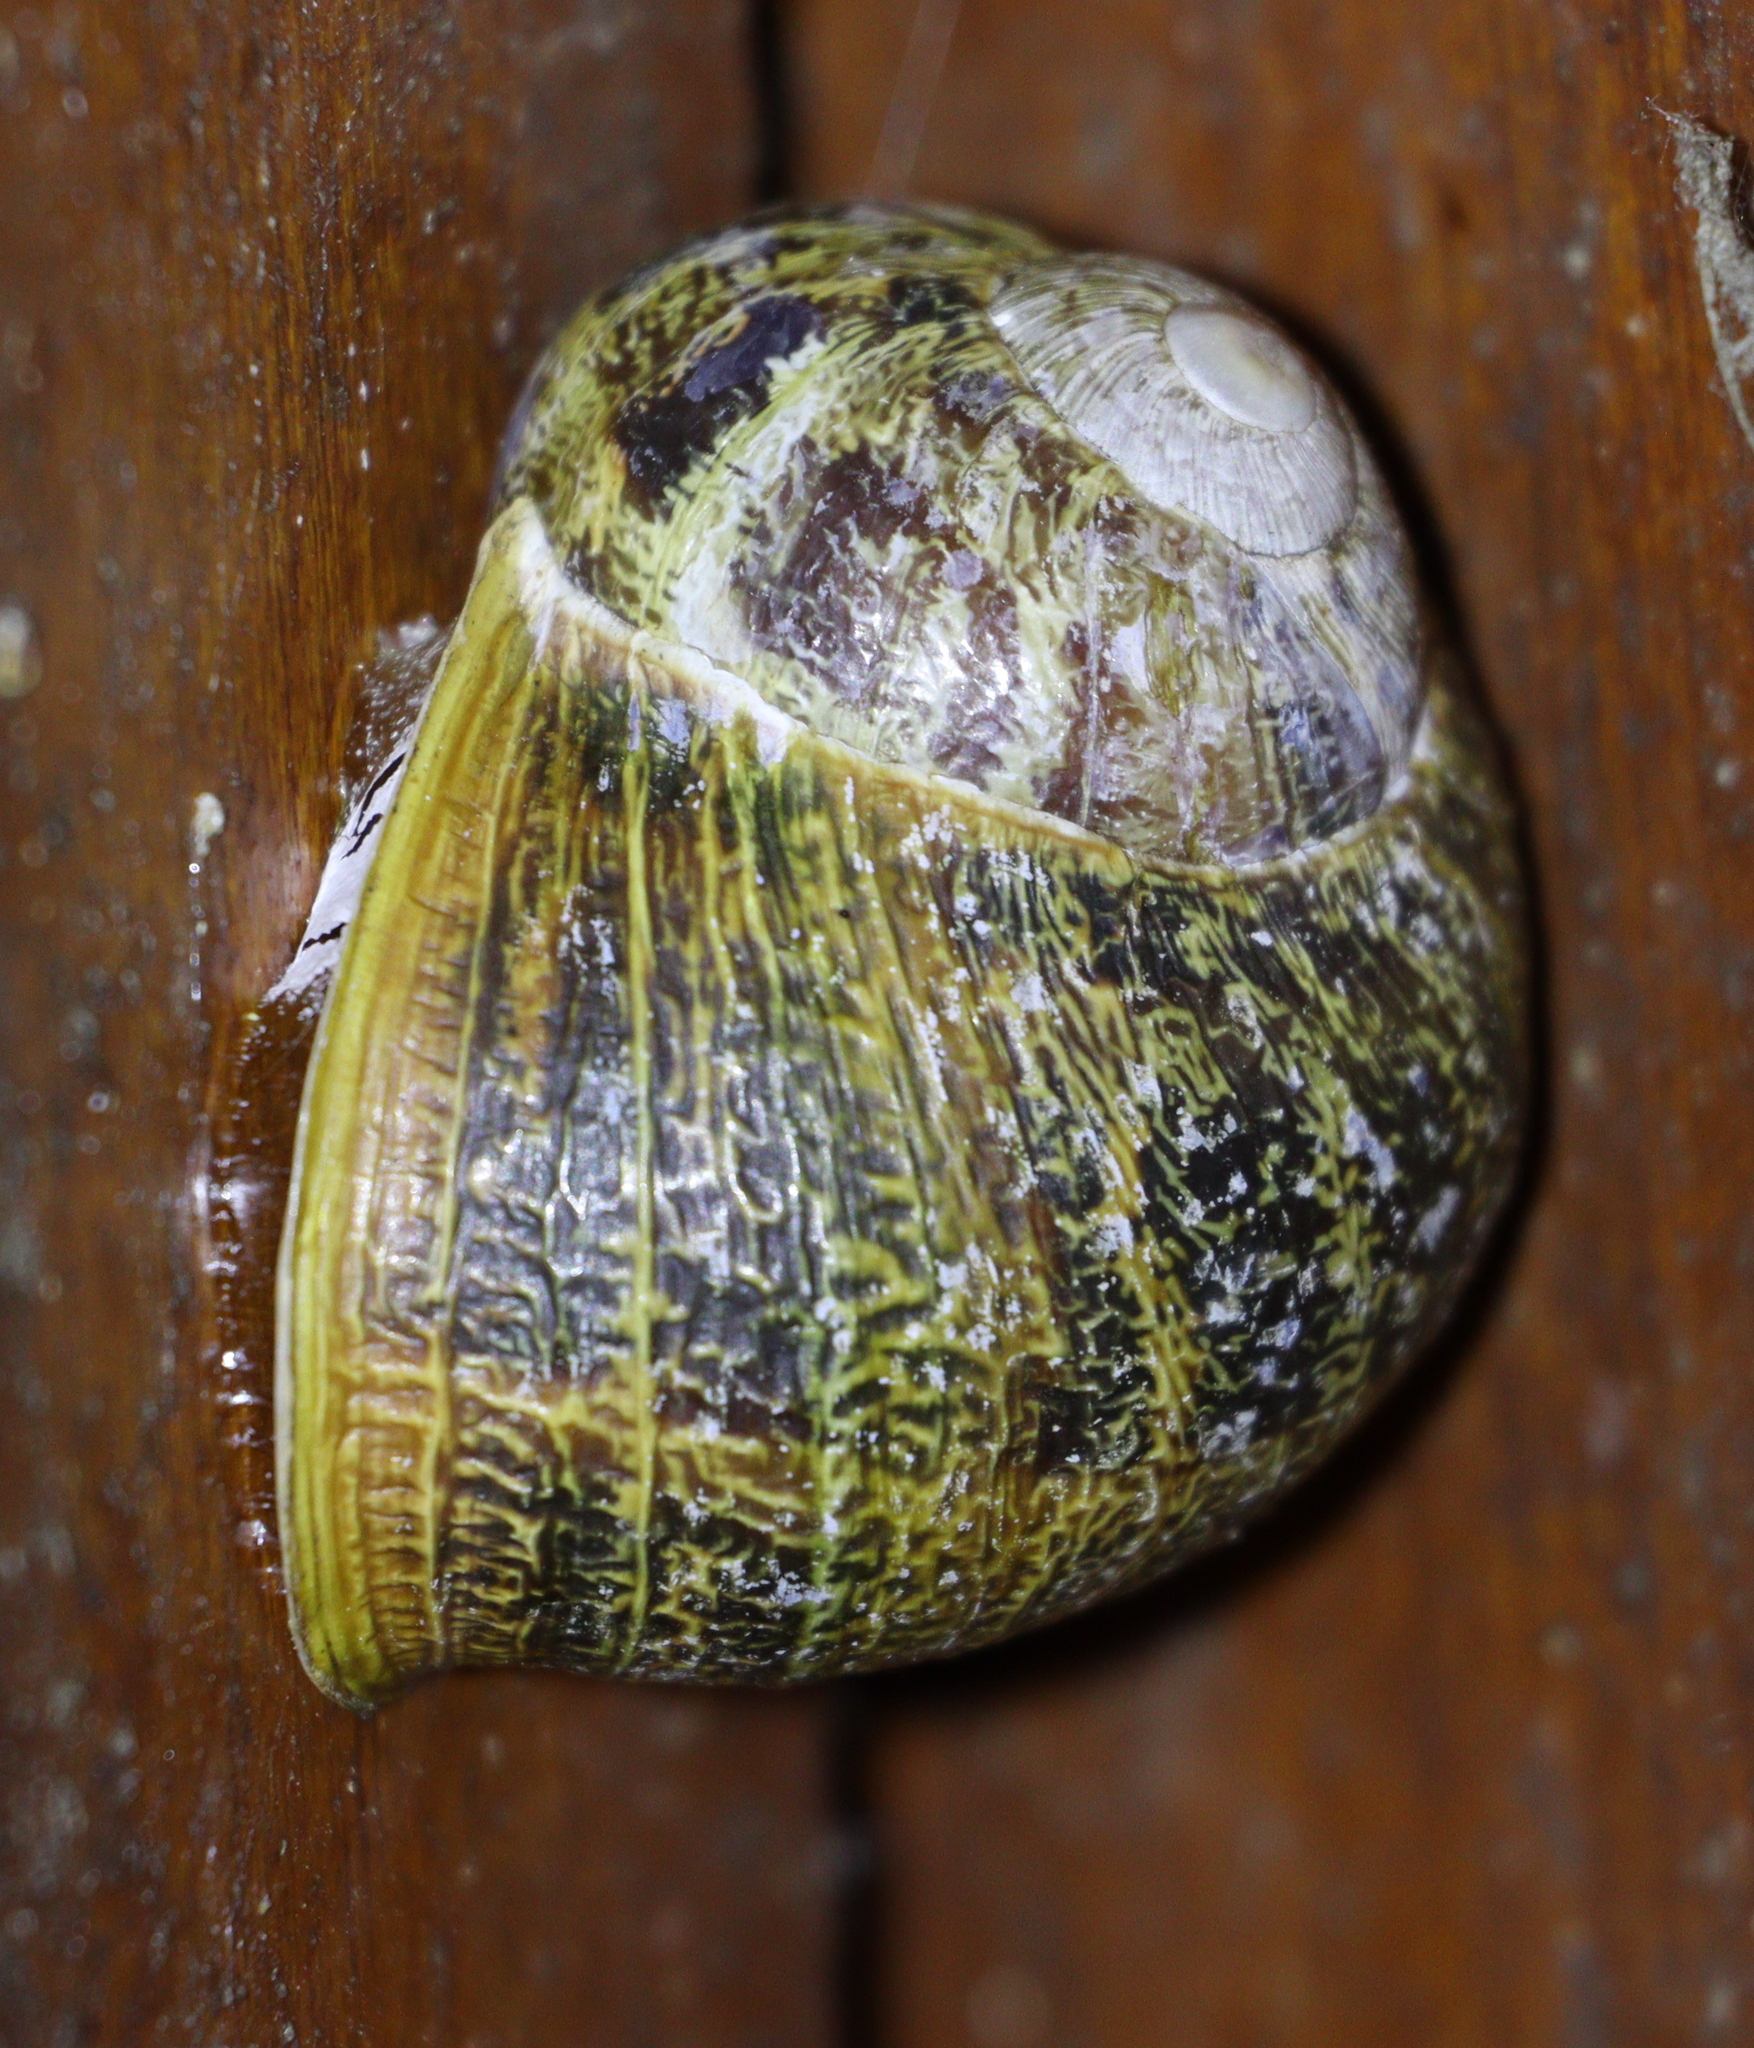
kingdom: Animalia
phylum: Mollusca
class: Gastropoda
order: Stylommatophora
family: Helicidae
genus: Cornu
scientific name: Cornu aspersum
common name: Brown garden snail
